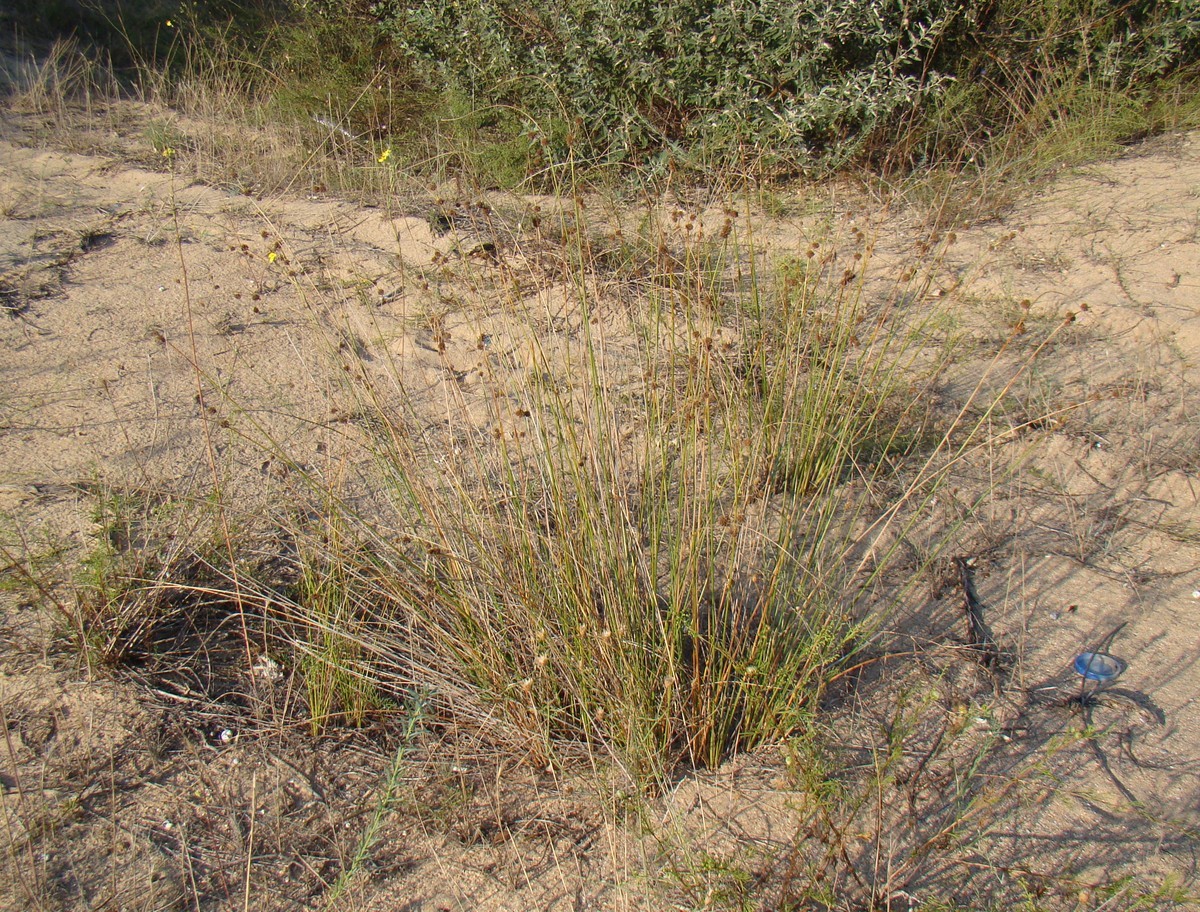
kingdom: Plantae
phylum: Tracheophyta
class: Liliopsida
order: Poales
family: Cyperaceae
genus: Scirpoides
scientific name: Scirpoides holoschoenus
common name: Round-headed club-rush
